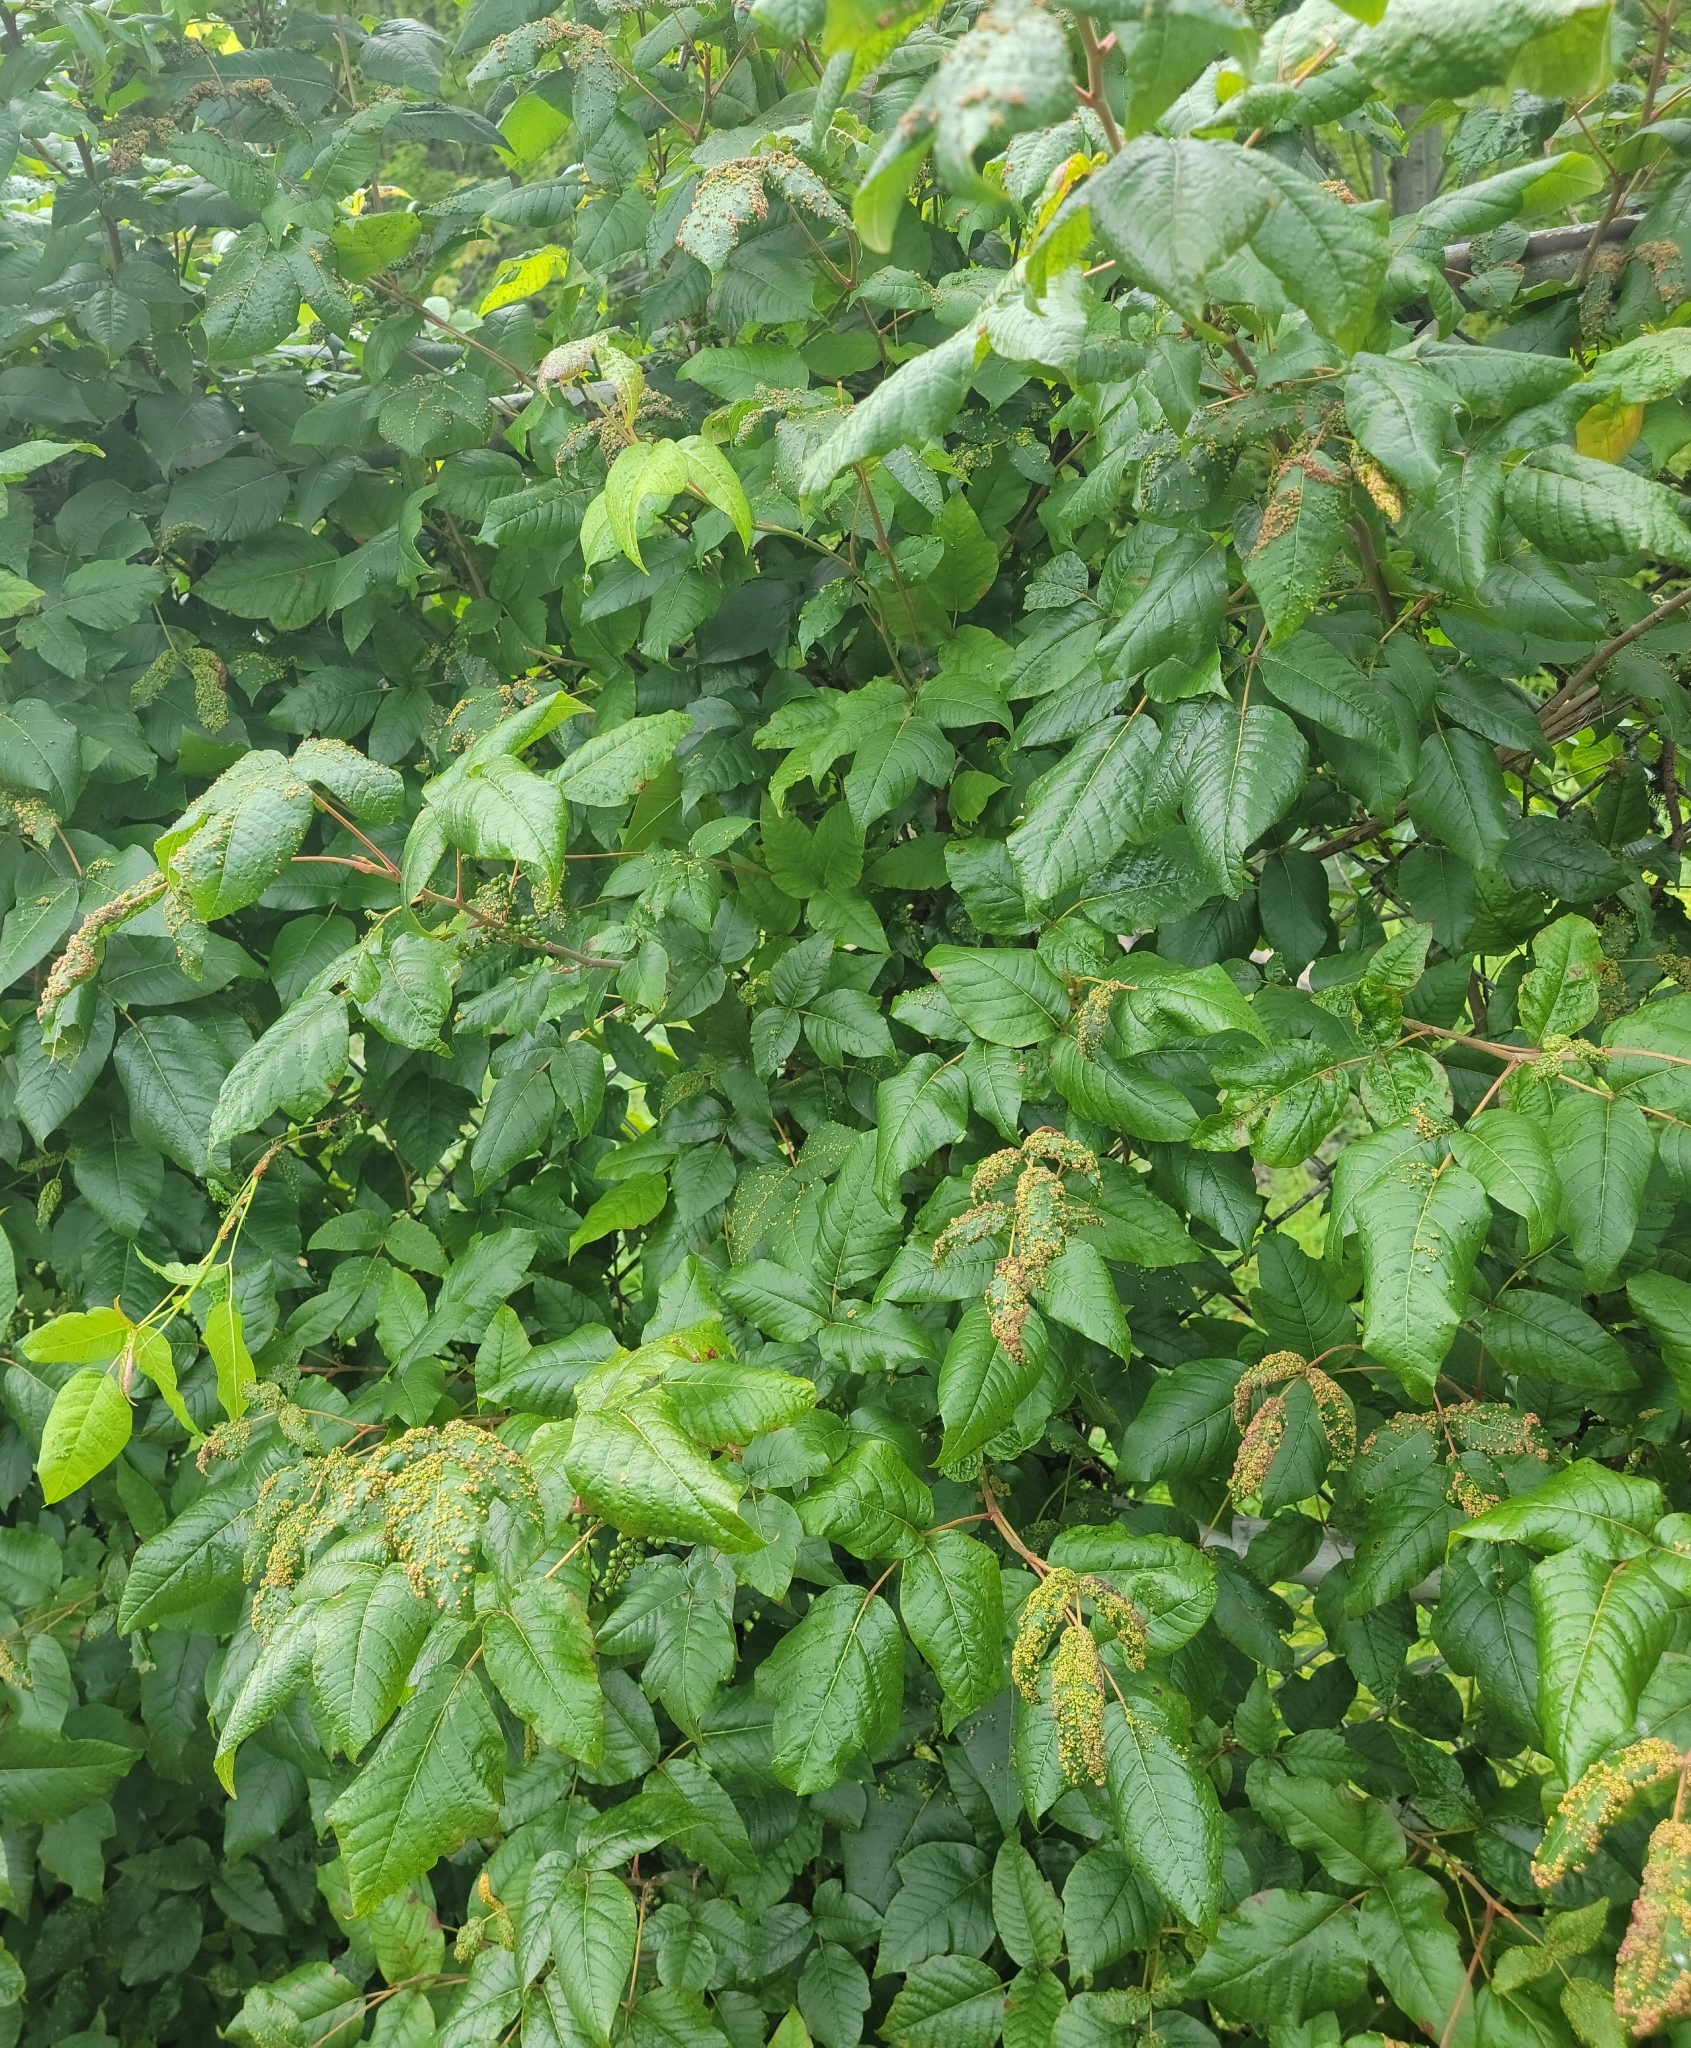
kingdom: Plantae
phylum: Tracheophyta
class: Magnoliopsida
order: Sapindales
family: Anacardiaceae
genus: Toxicodendron
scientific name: Toxicodendron radicans
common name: Poison ivy
